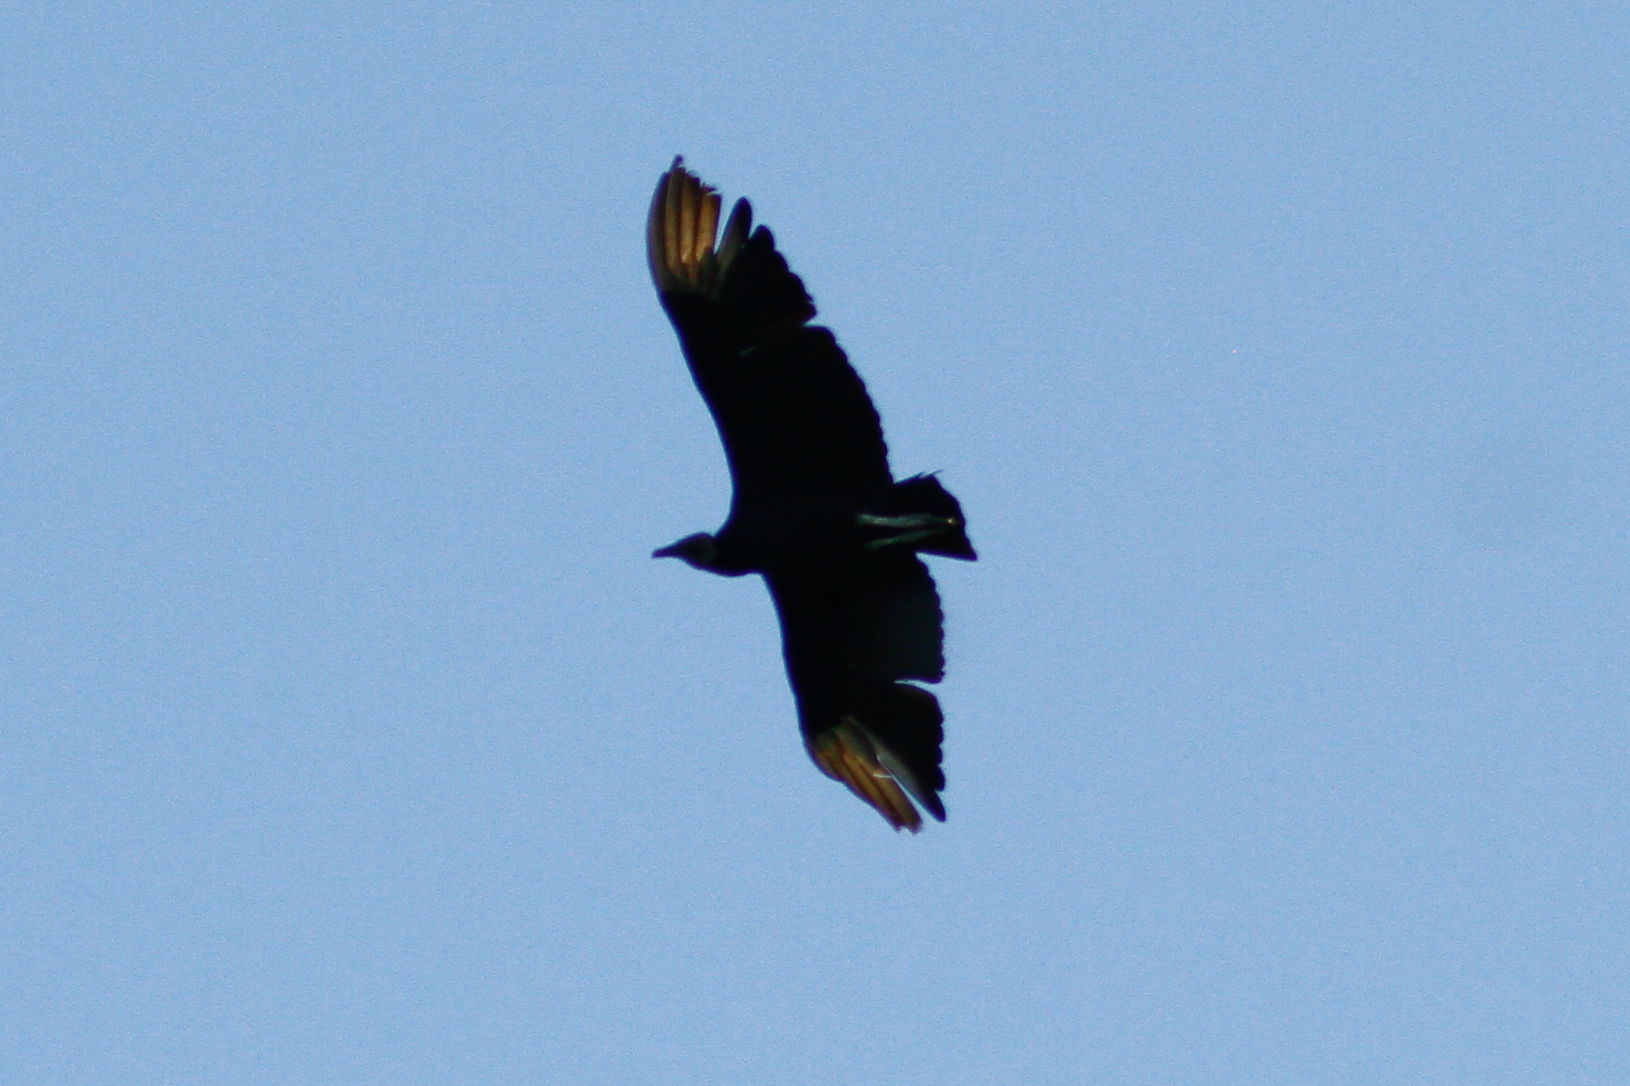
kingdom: Animalia
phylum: Chordata
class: Aves
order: Accipitriformes
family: Cathartidae
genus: Coragyps
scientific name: Coragyps atratus
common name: Black vulture
